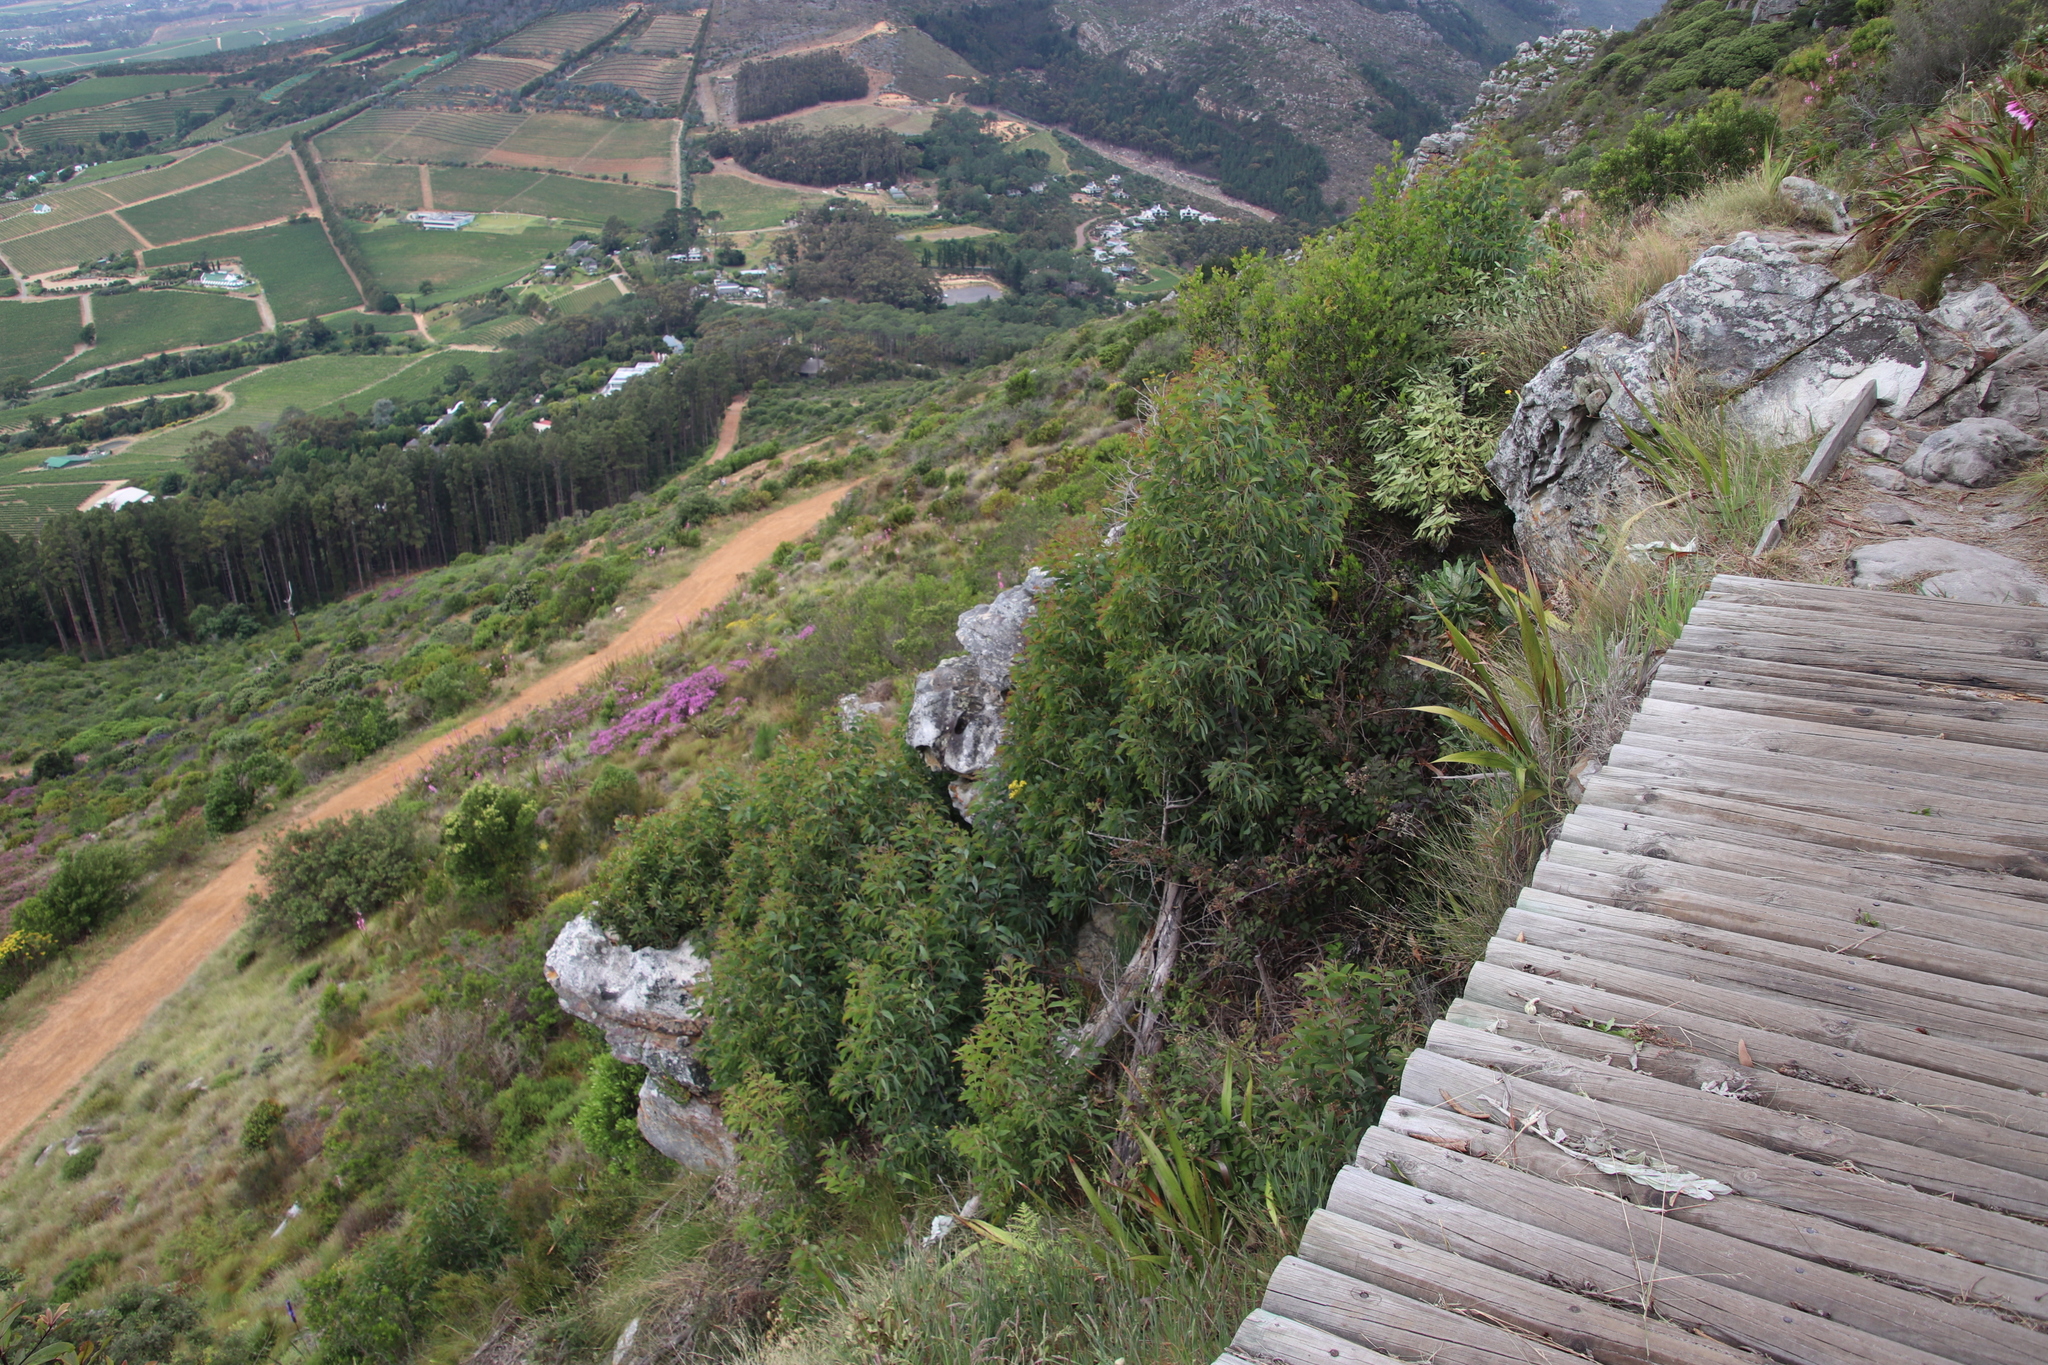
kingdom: Plantae
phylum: Tracheophyta
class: Magnoliopsida
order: Fabales
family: Fabaceae
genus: Acacia
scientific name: Acacia falciformis
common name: Tanning wattle
